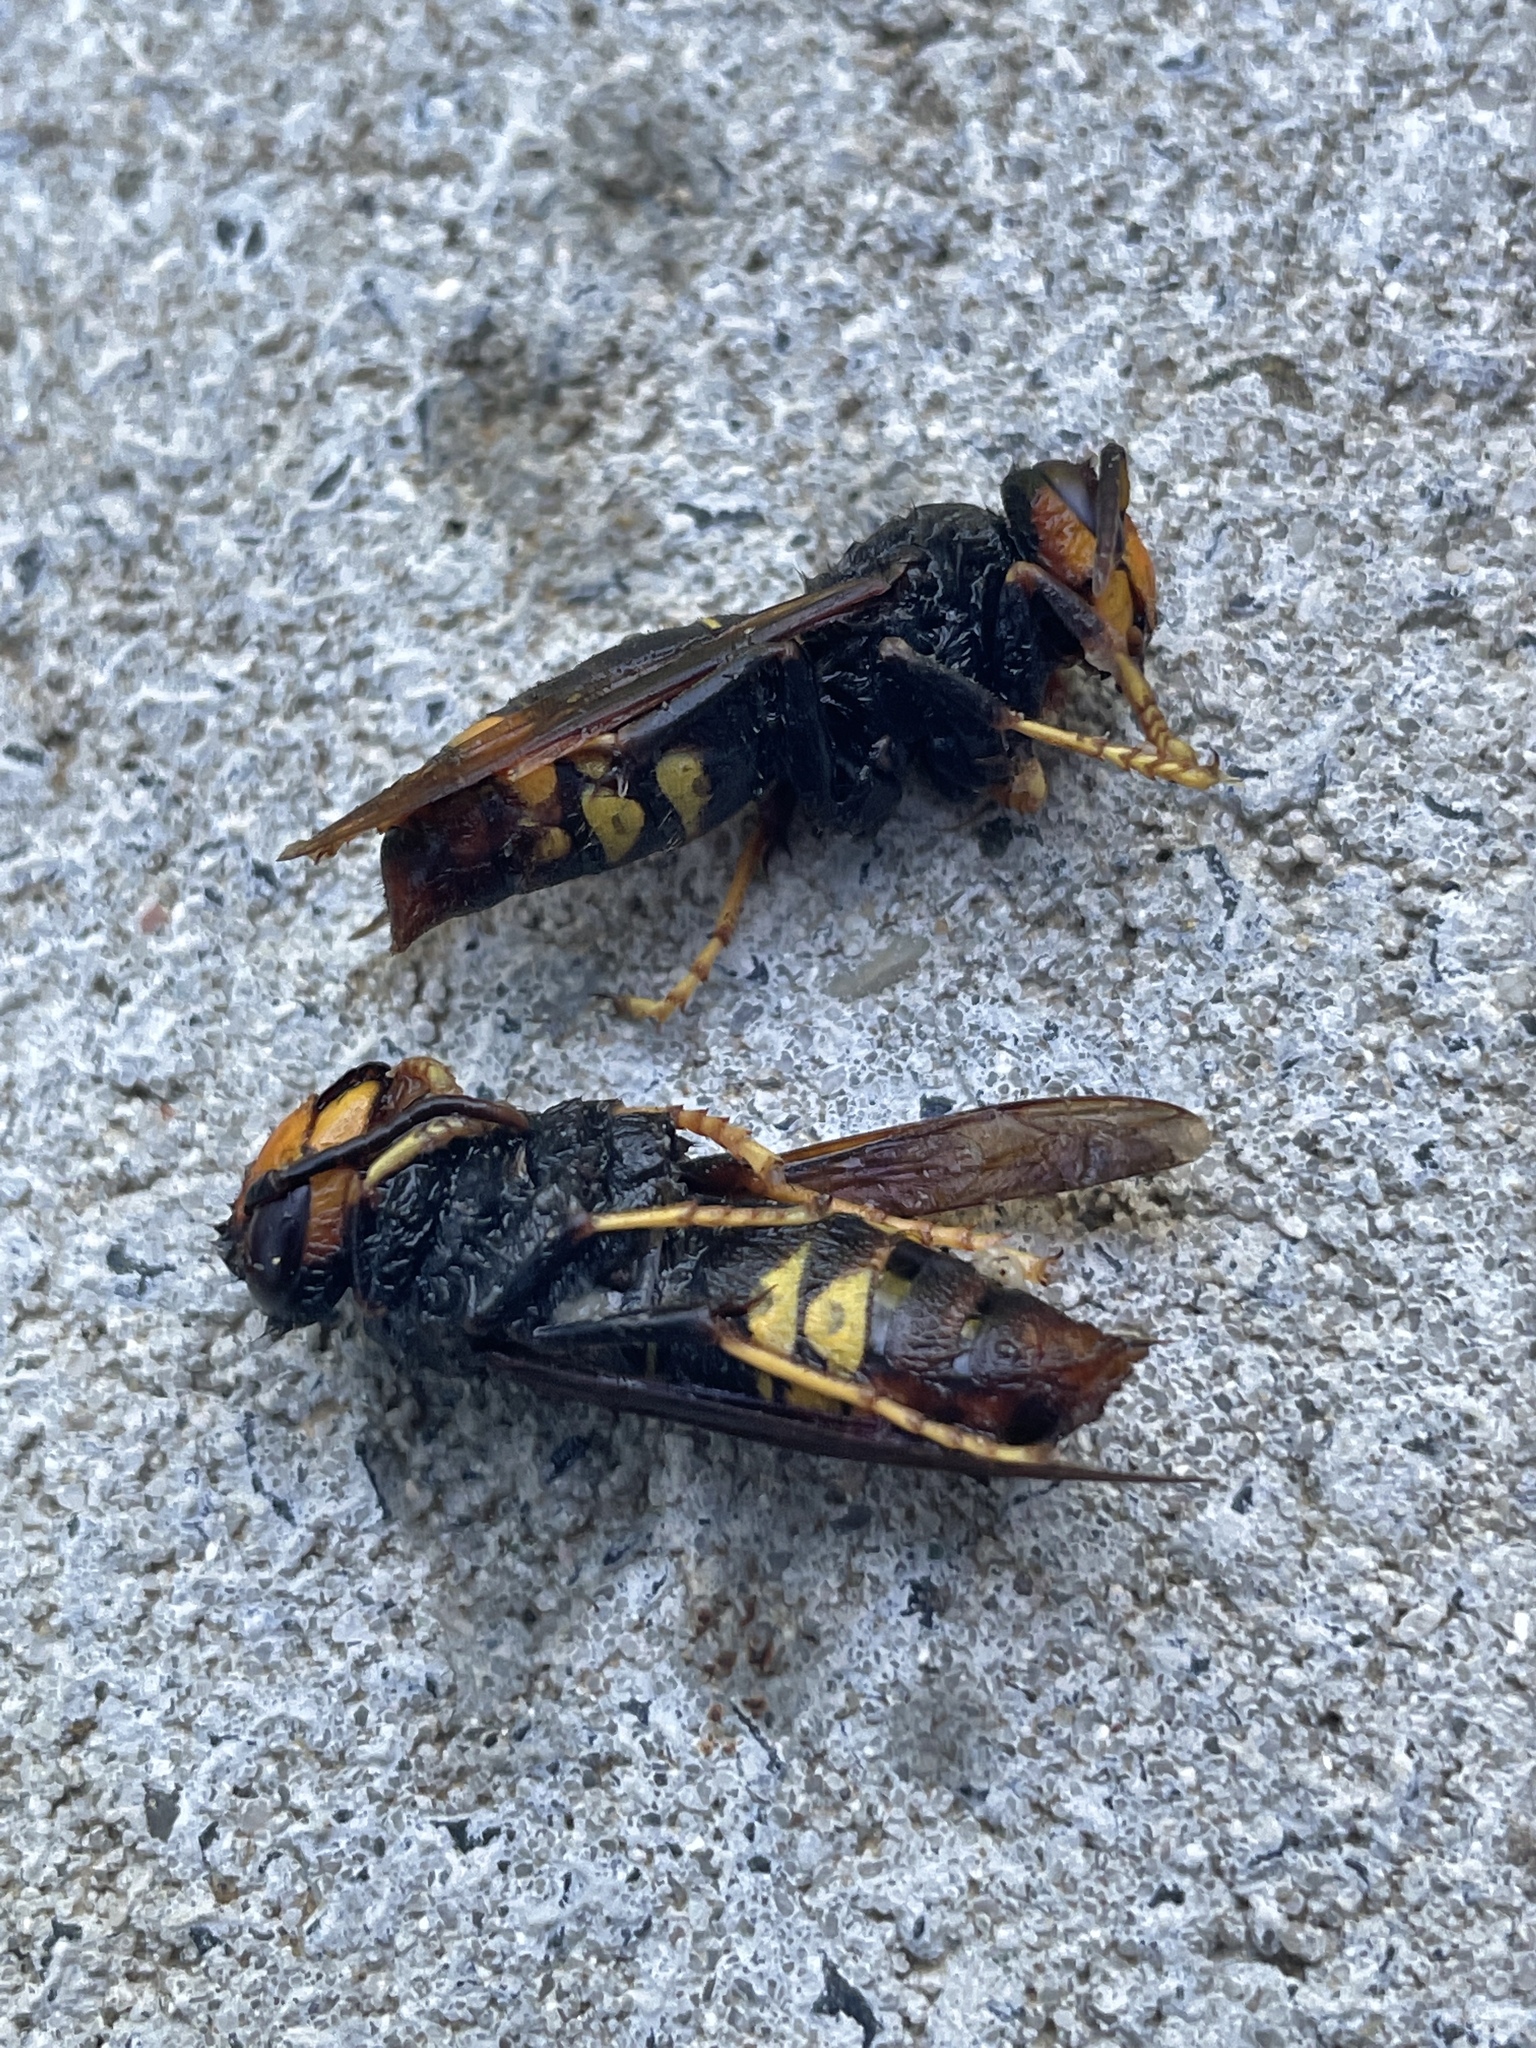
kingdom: Animalia
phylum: Arthropoda
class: Insecta
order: Hymenoptera
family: Vespidae
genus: Vespa
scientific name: Vespa velutina
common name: Asian hornet
